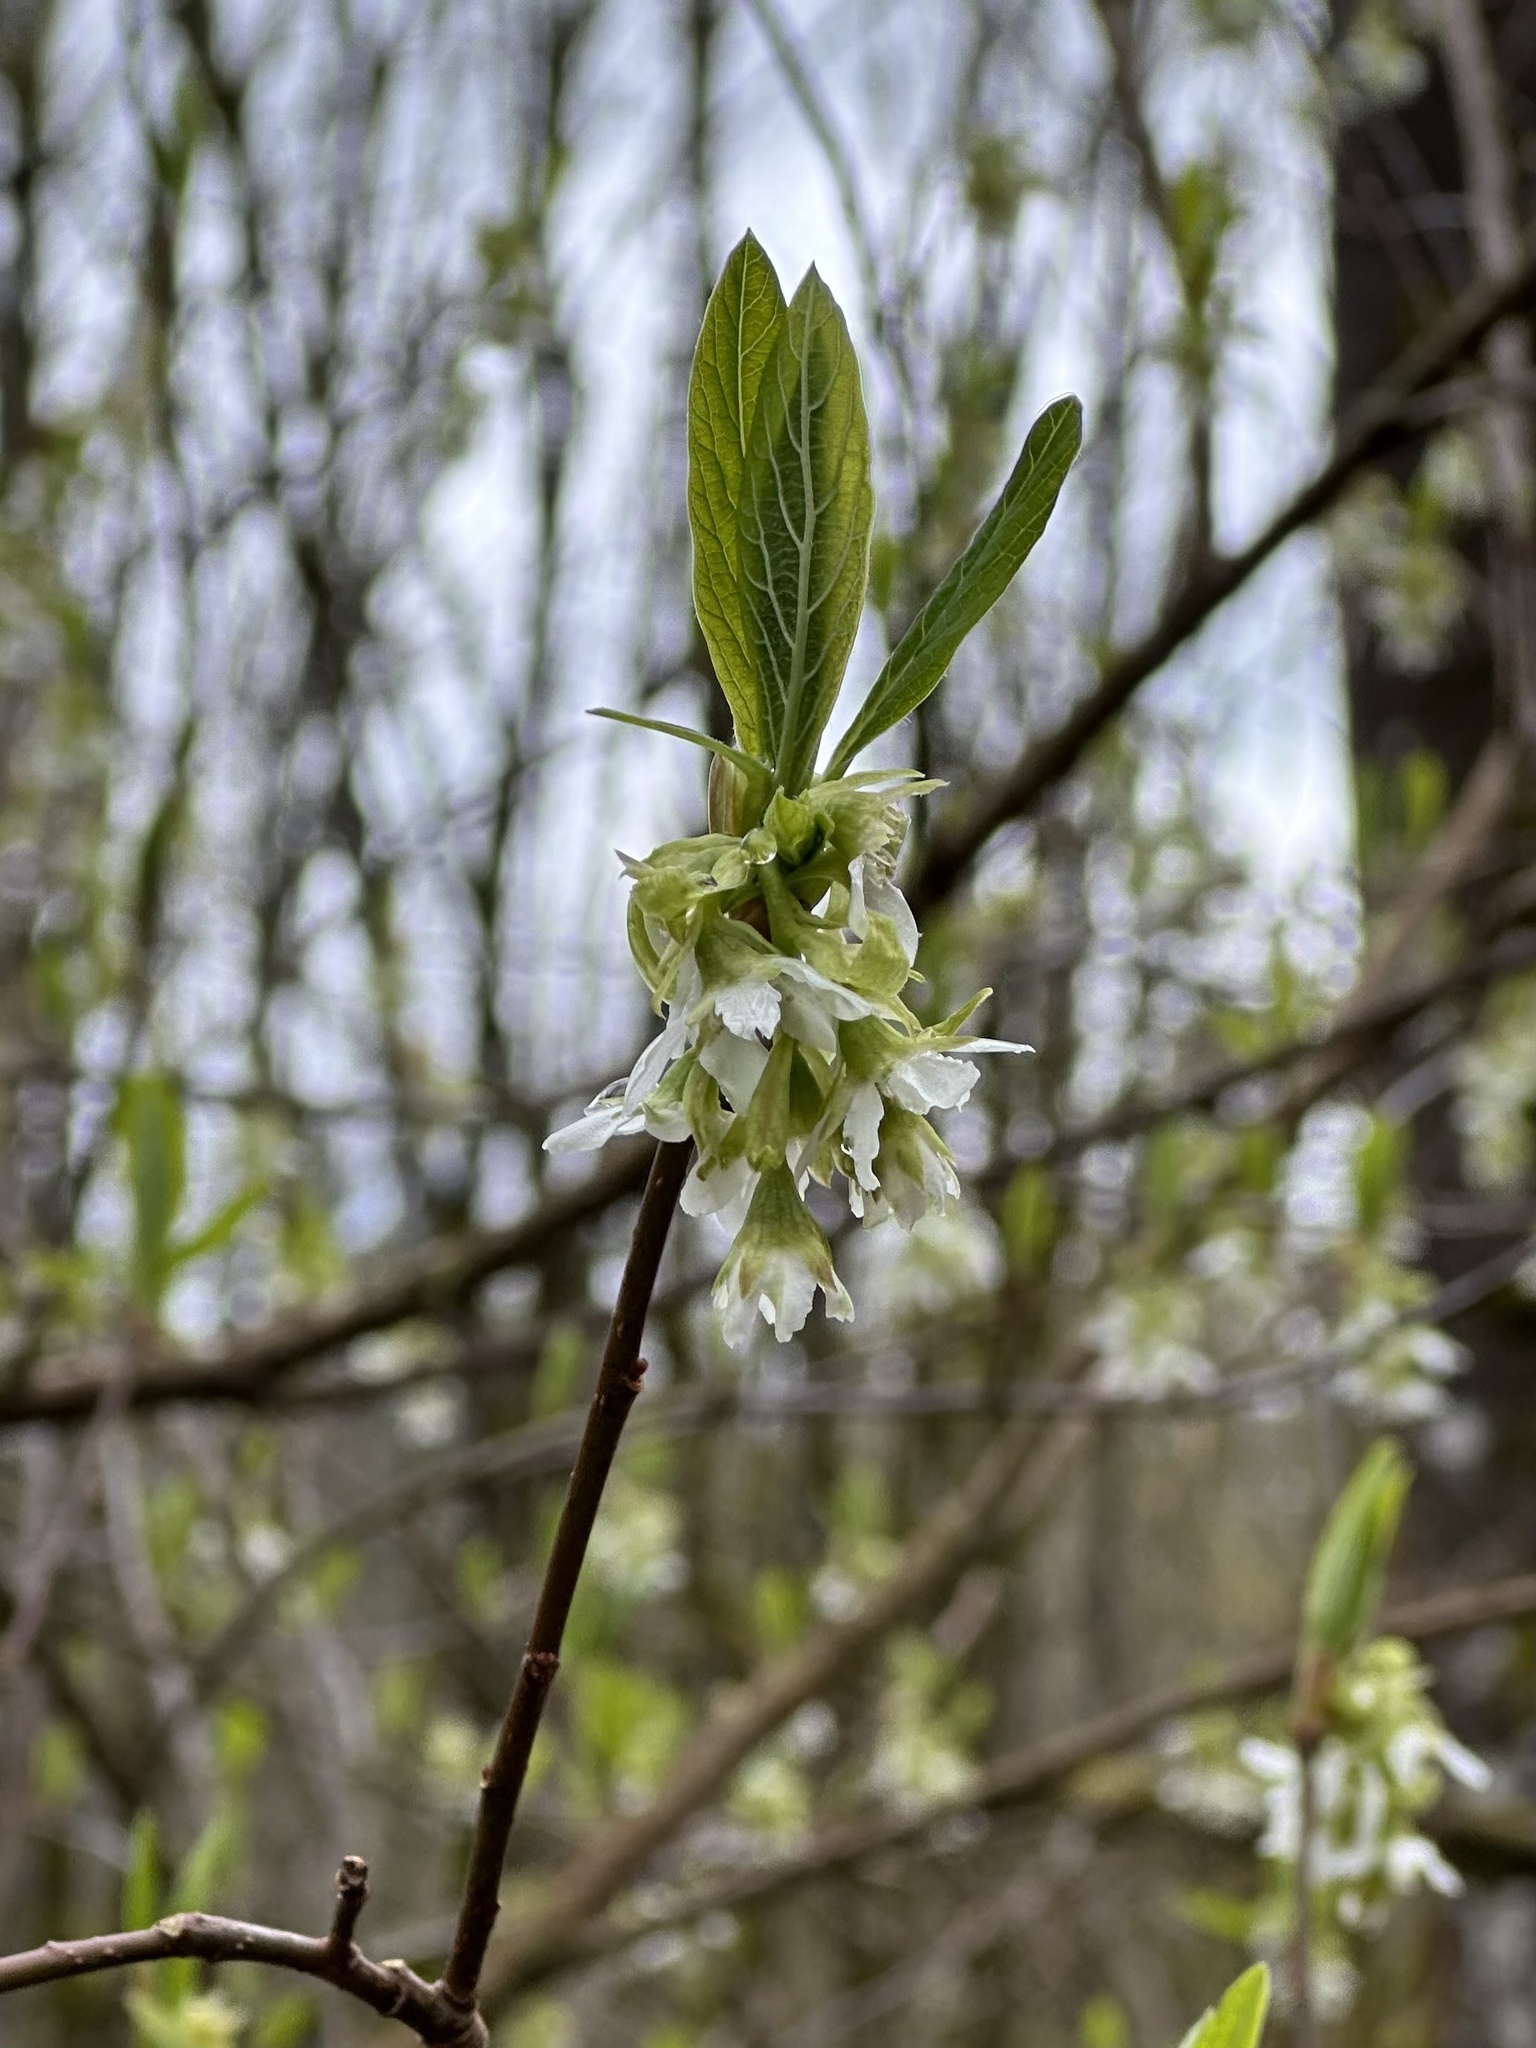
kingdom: Plantae
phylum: Tracheophyta
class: Magnoliopsida
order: Rosales
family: Rosaceae
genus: Oemleria
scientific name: Oemleria cerasiformis
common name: Osoberry
